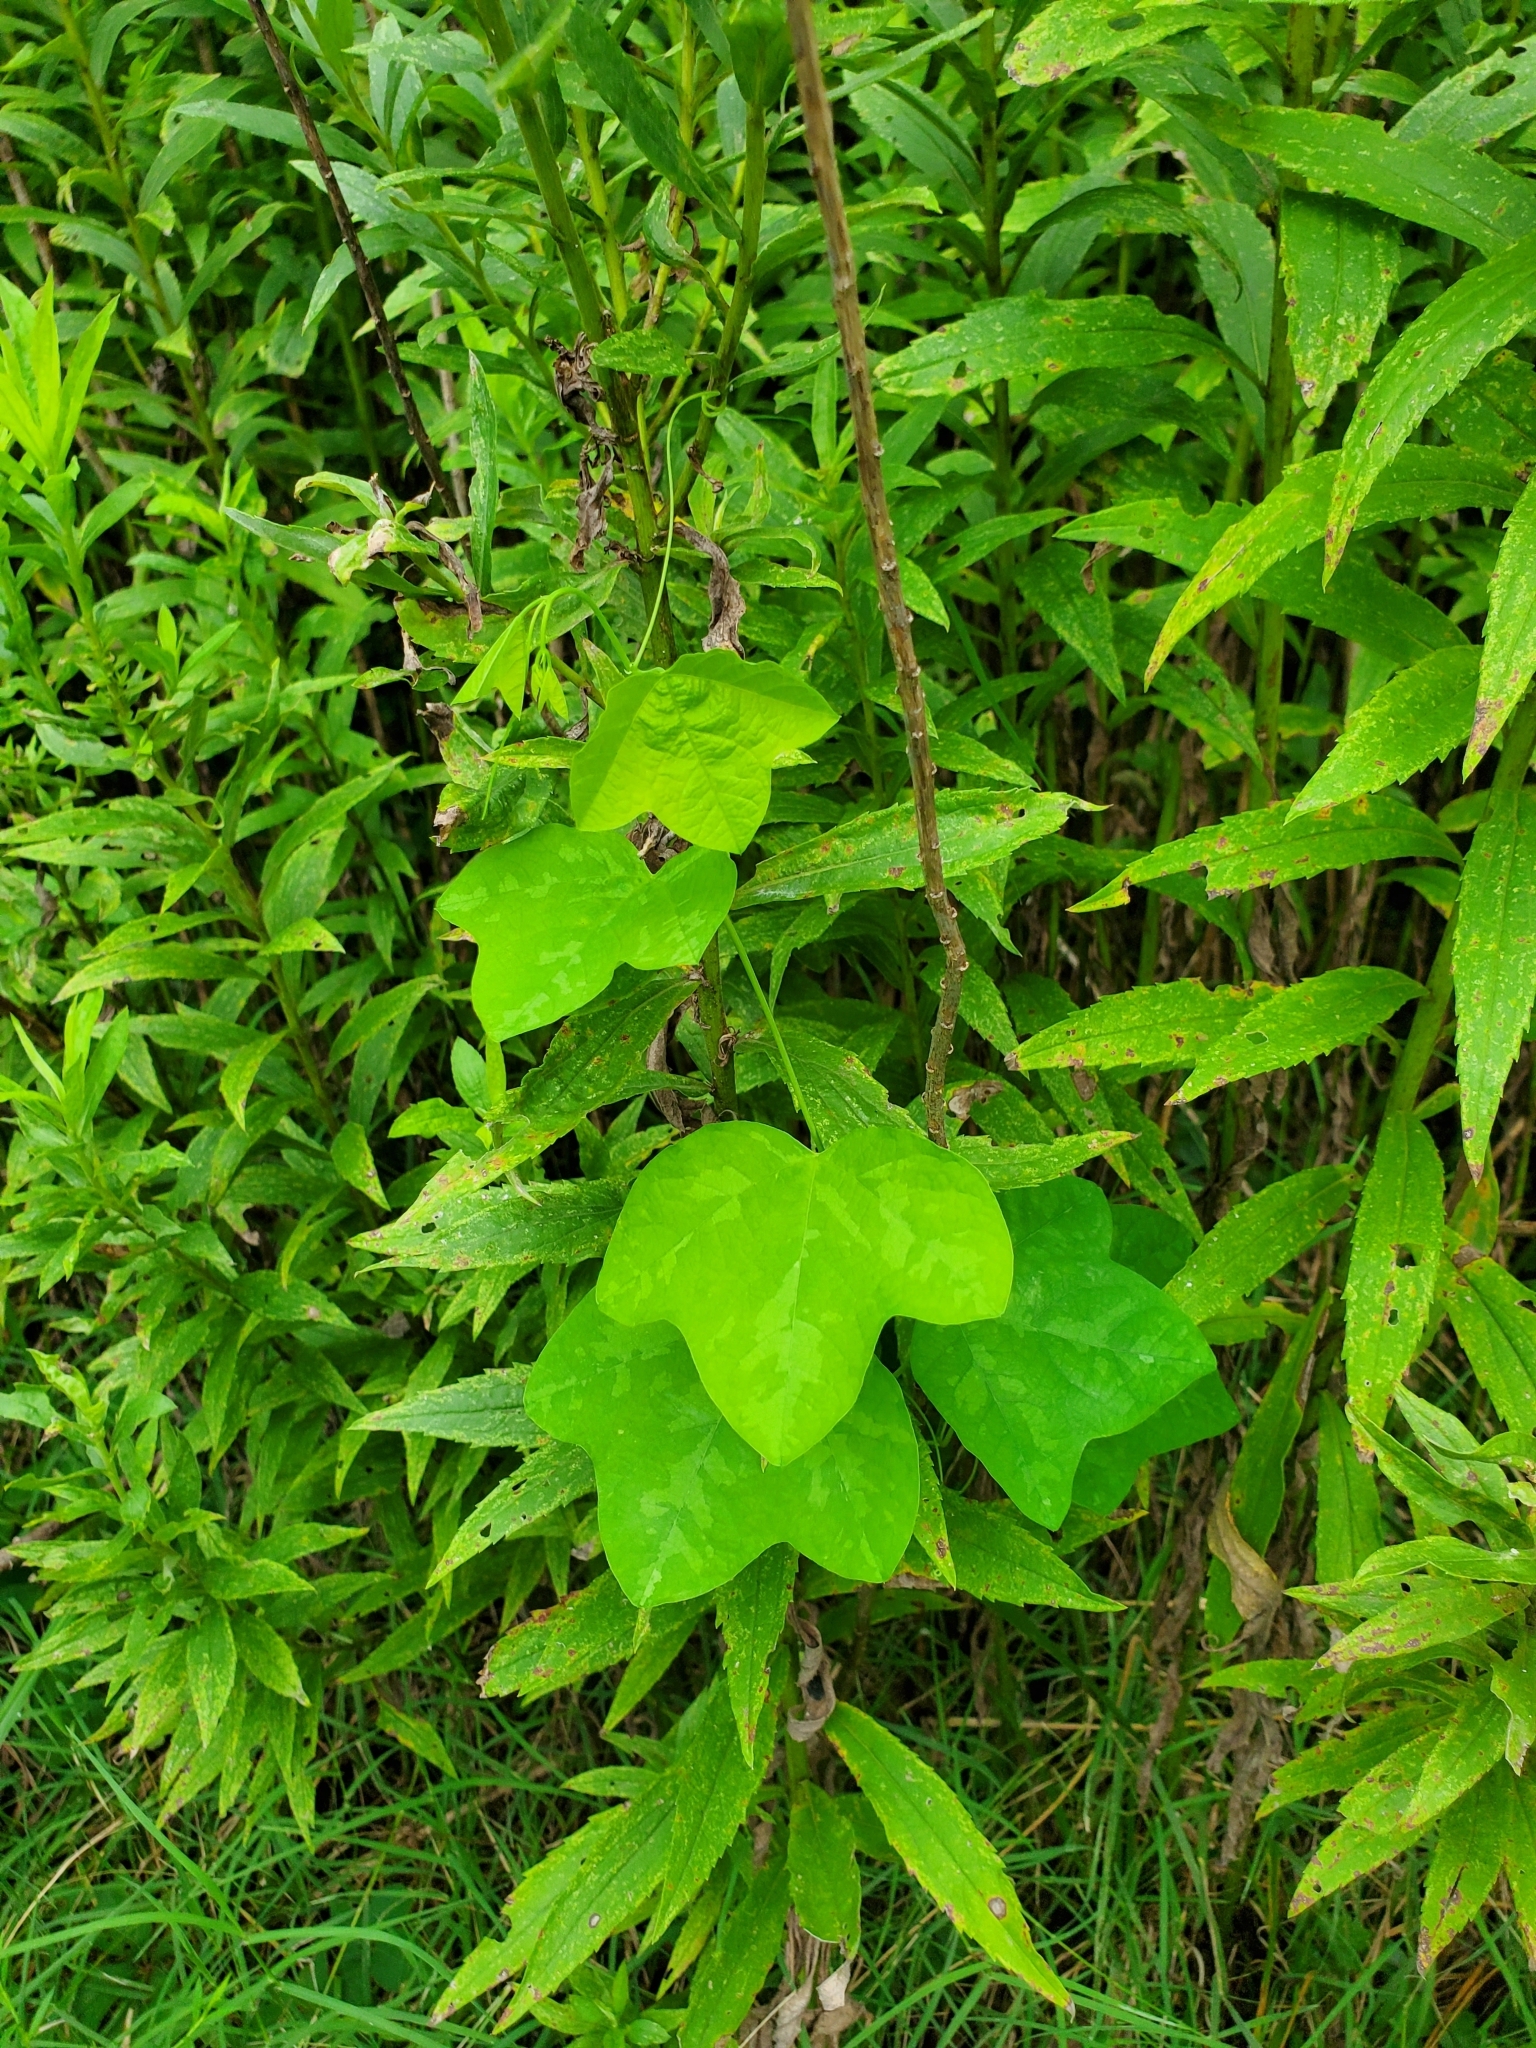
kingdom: Plantae
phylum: Tracheophyta
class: Magnoliopsida
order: Malpighiales
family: Passifloraceae
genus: Passiflora
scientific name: Passiflora lutea
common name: Yellow passionflower
